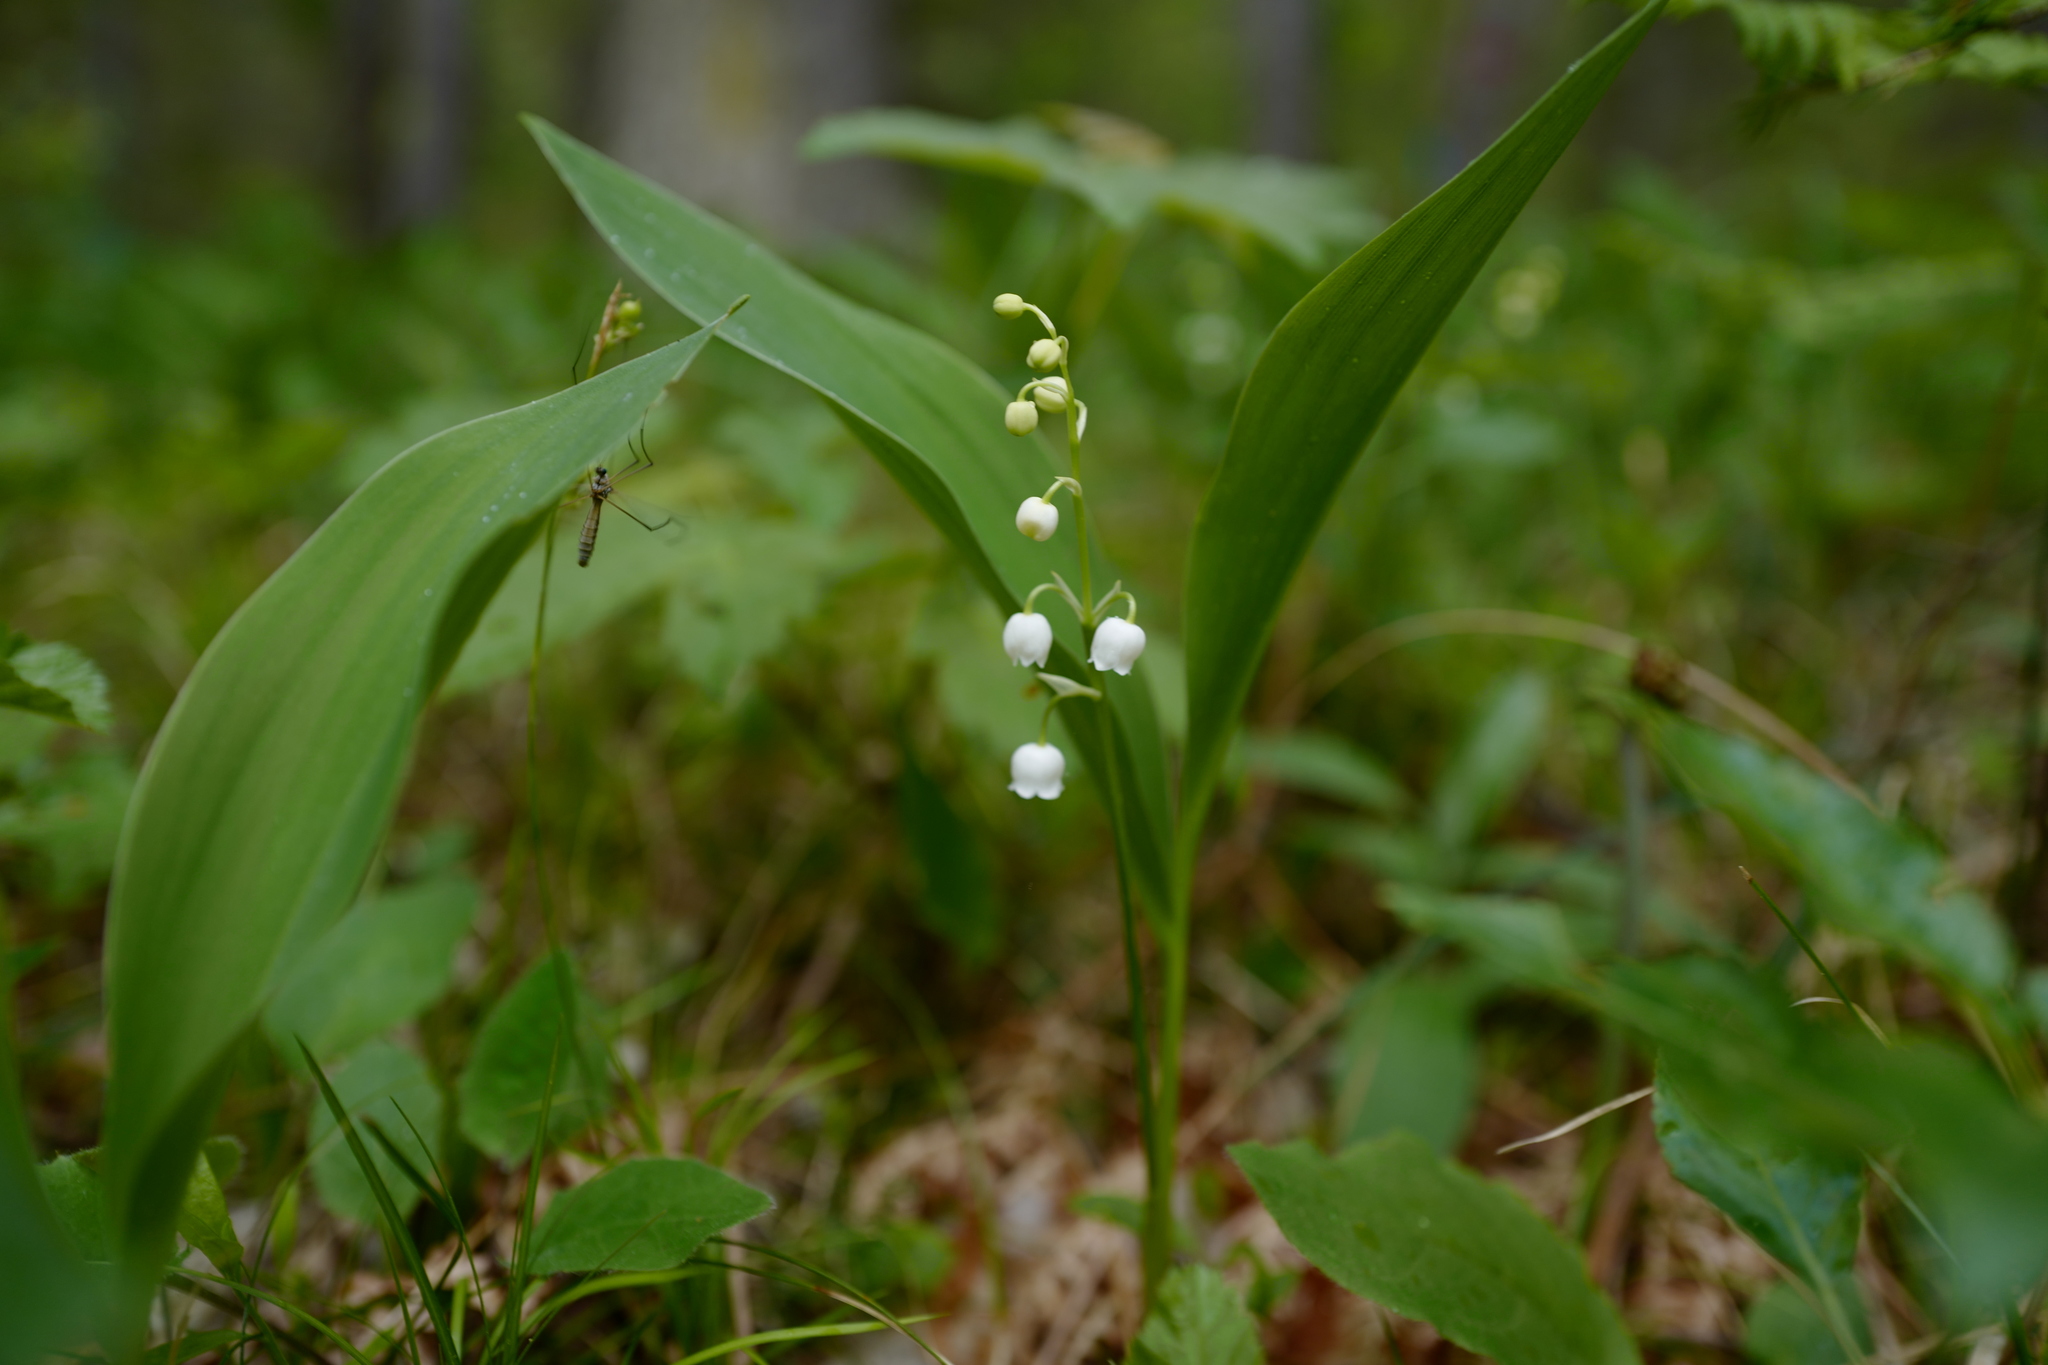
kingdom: Plantae
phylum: Tracheophyta
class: Liliopsida
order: Asparagales
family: Asparagaceae
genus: Convallaria
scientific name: Convallaria majalis
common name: Lily-of-the-valley
